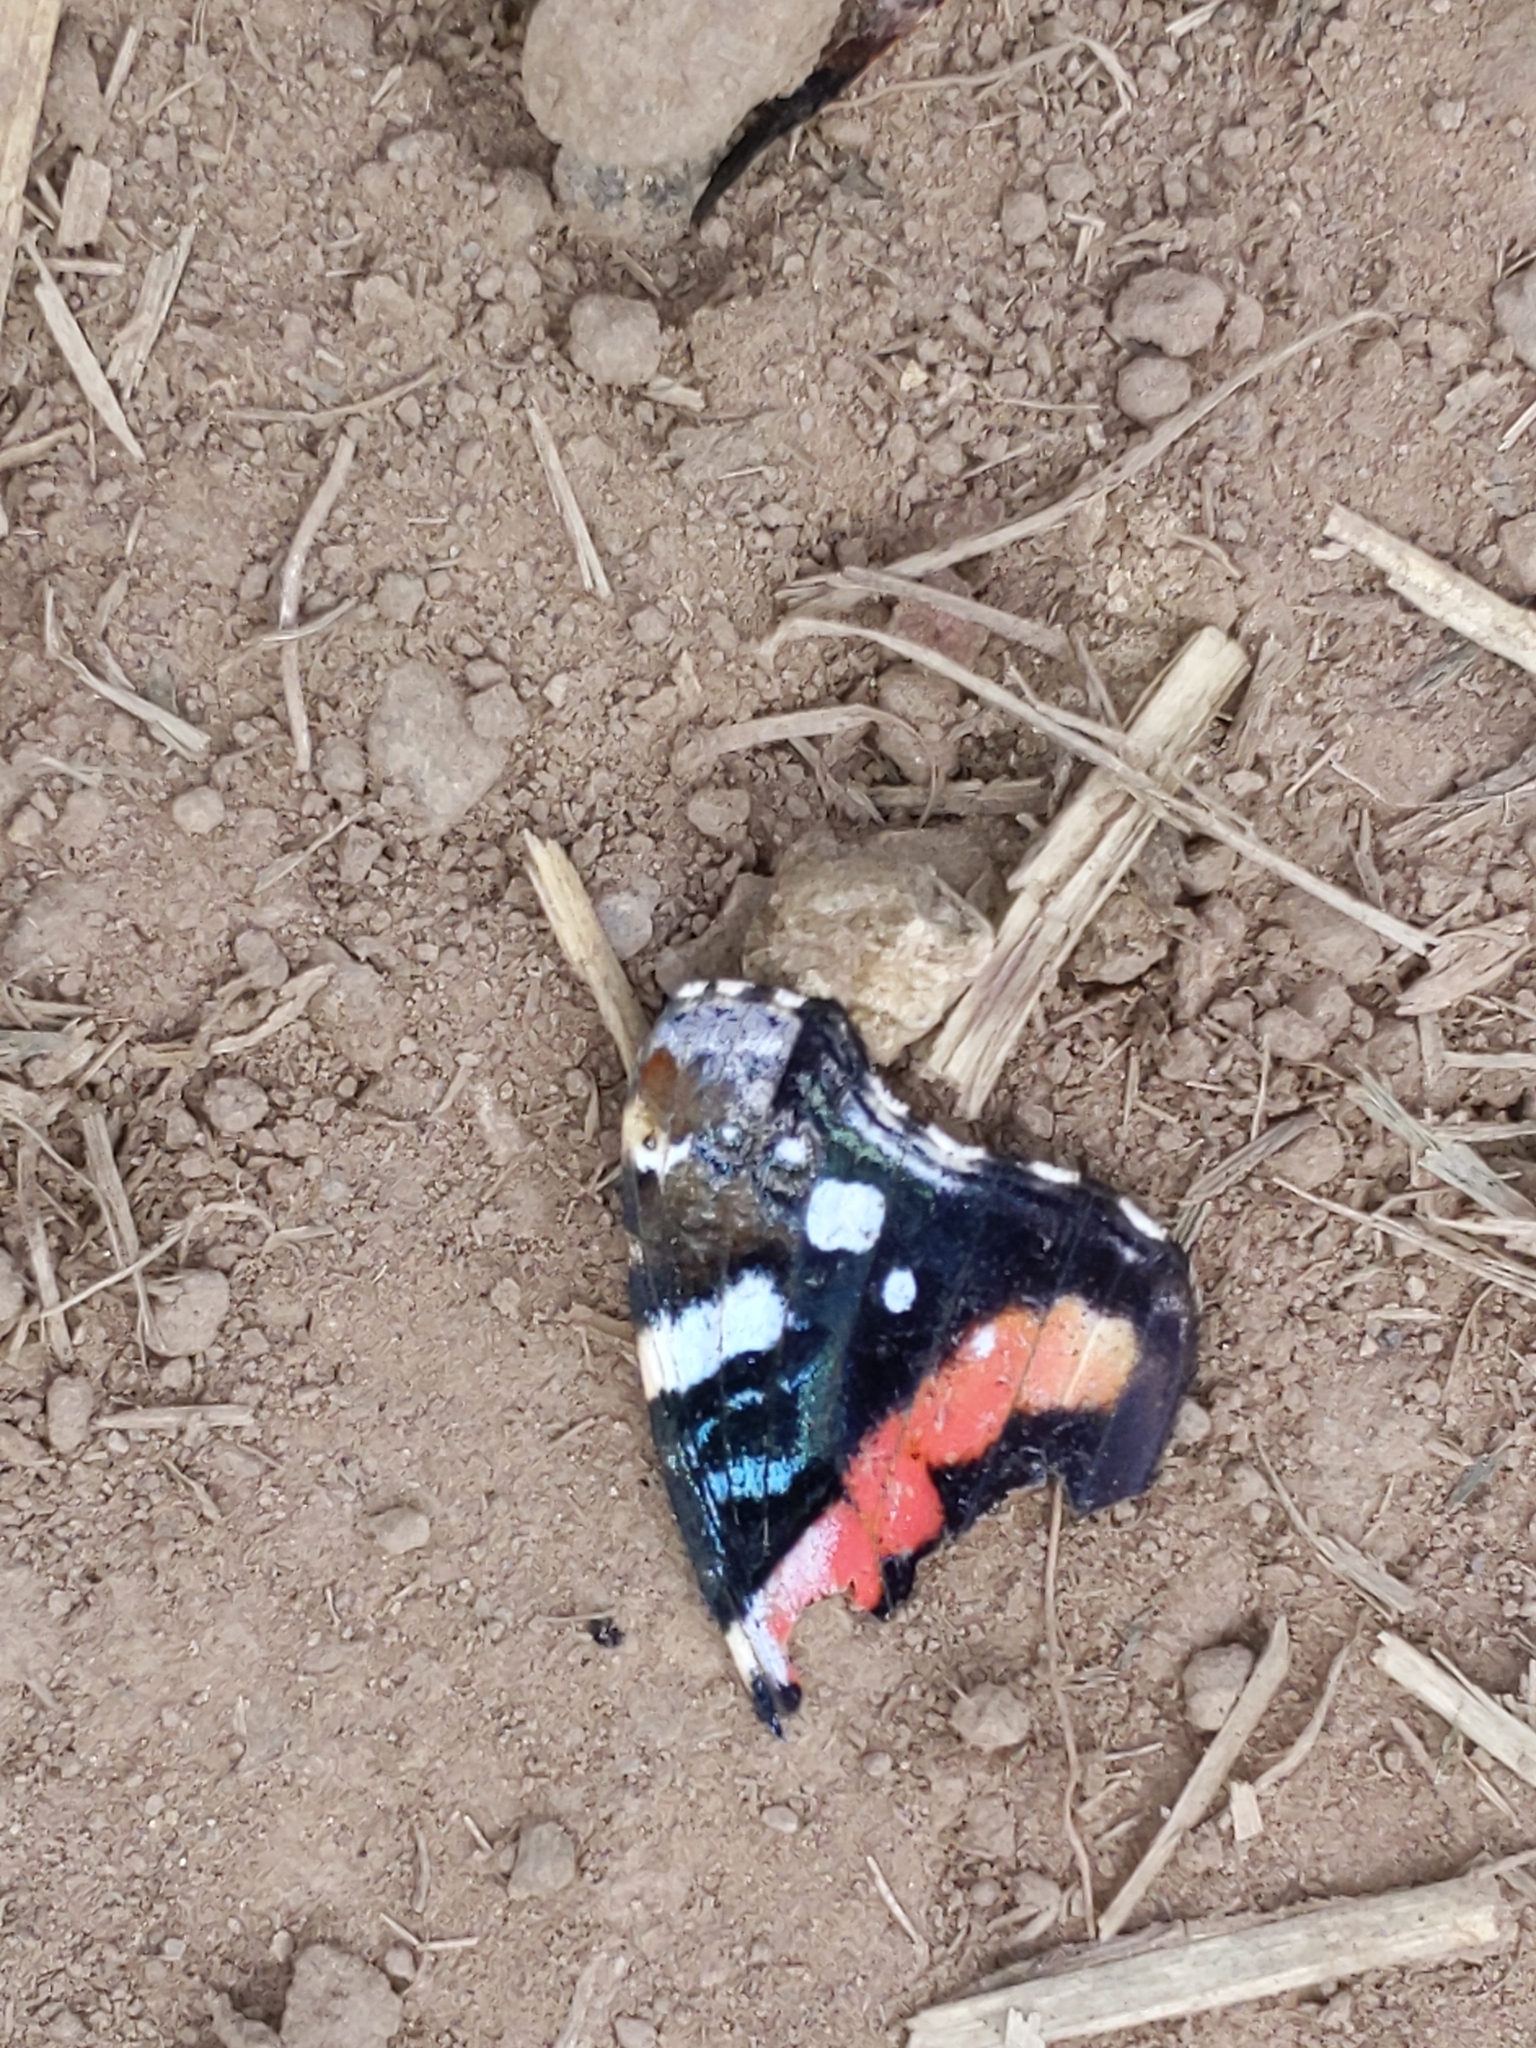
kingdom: Animalia
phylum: Arthropoda
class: Insecta
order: Lepidoptera
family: Nymphalidae
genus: Vanessa
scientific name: Vanessa atalanta
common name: Red admiral
